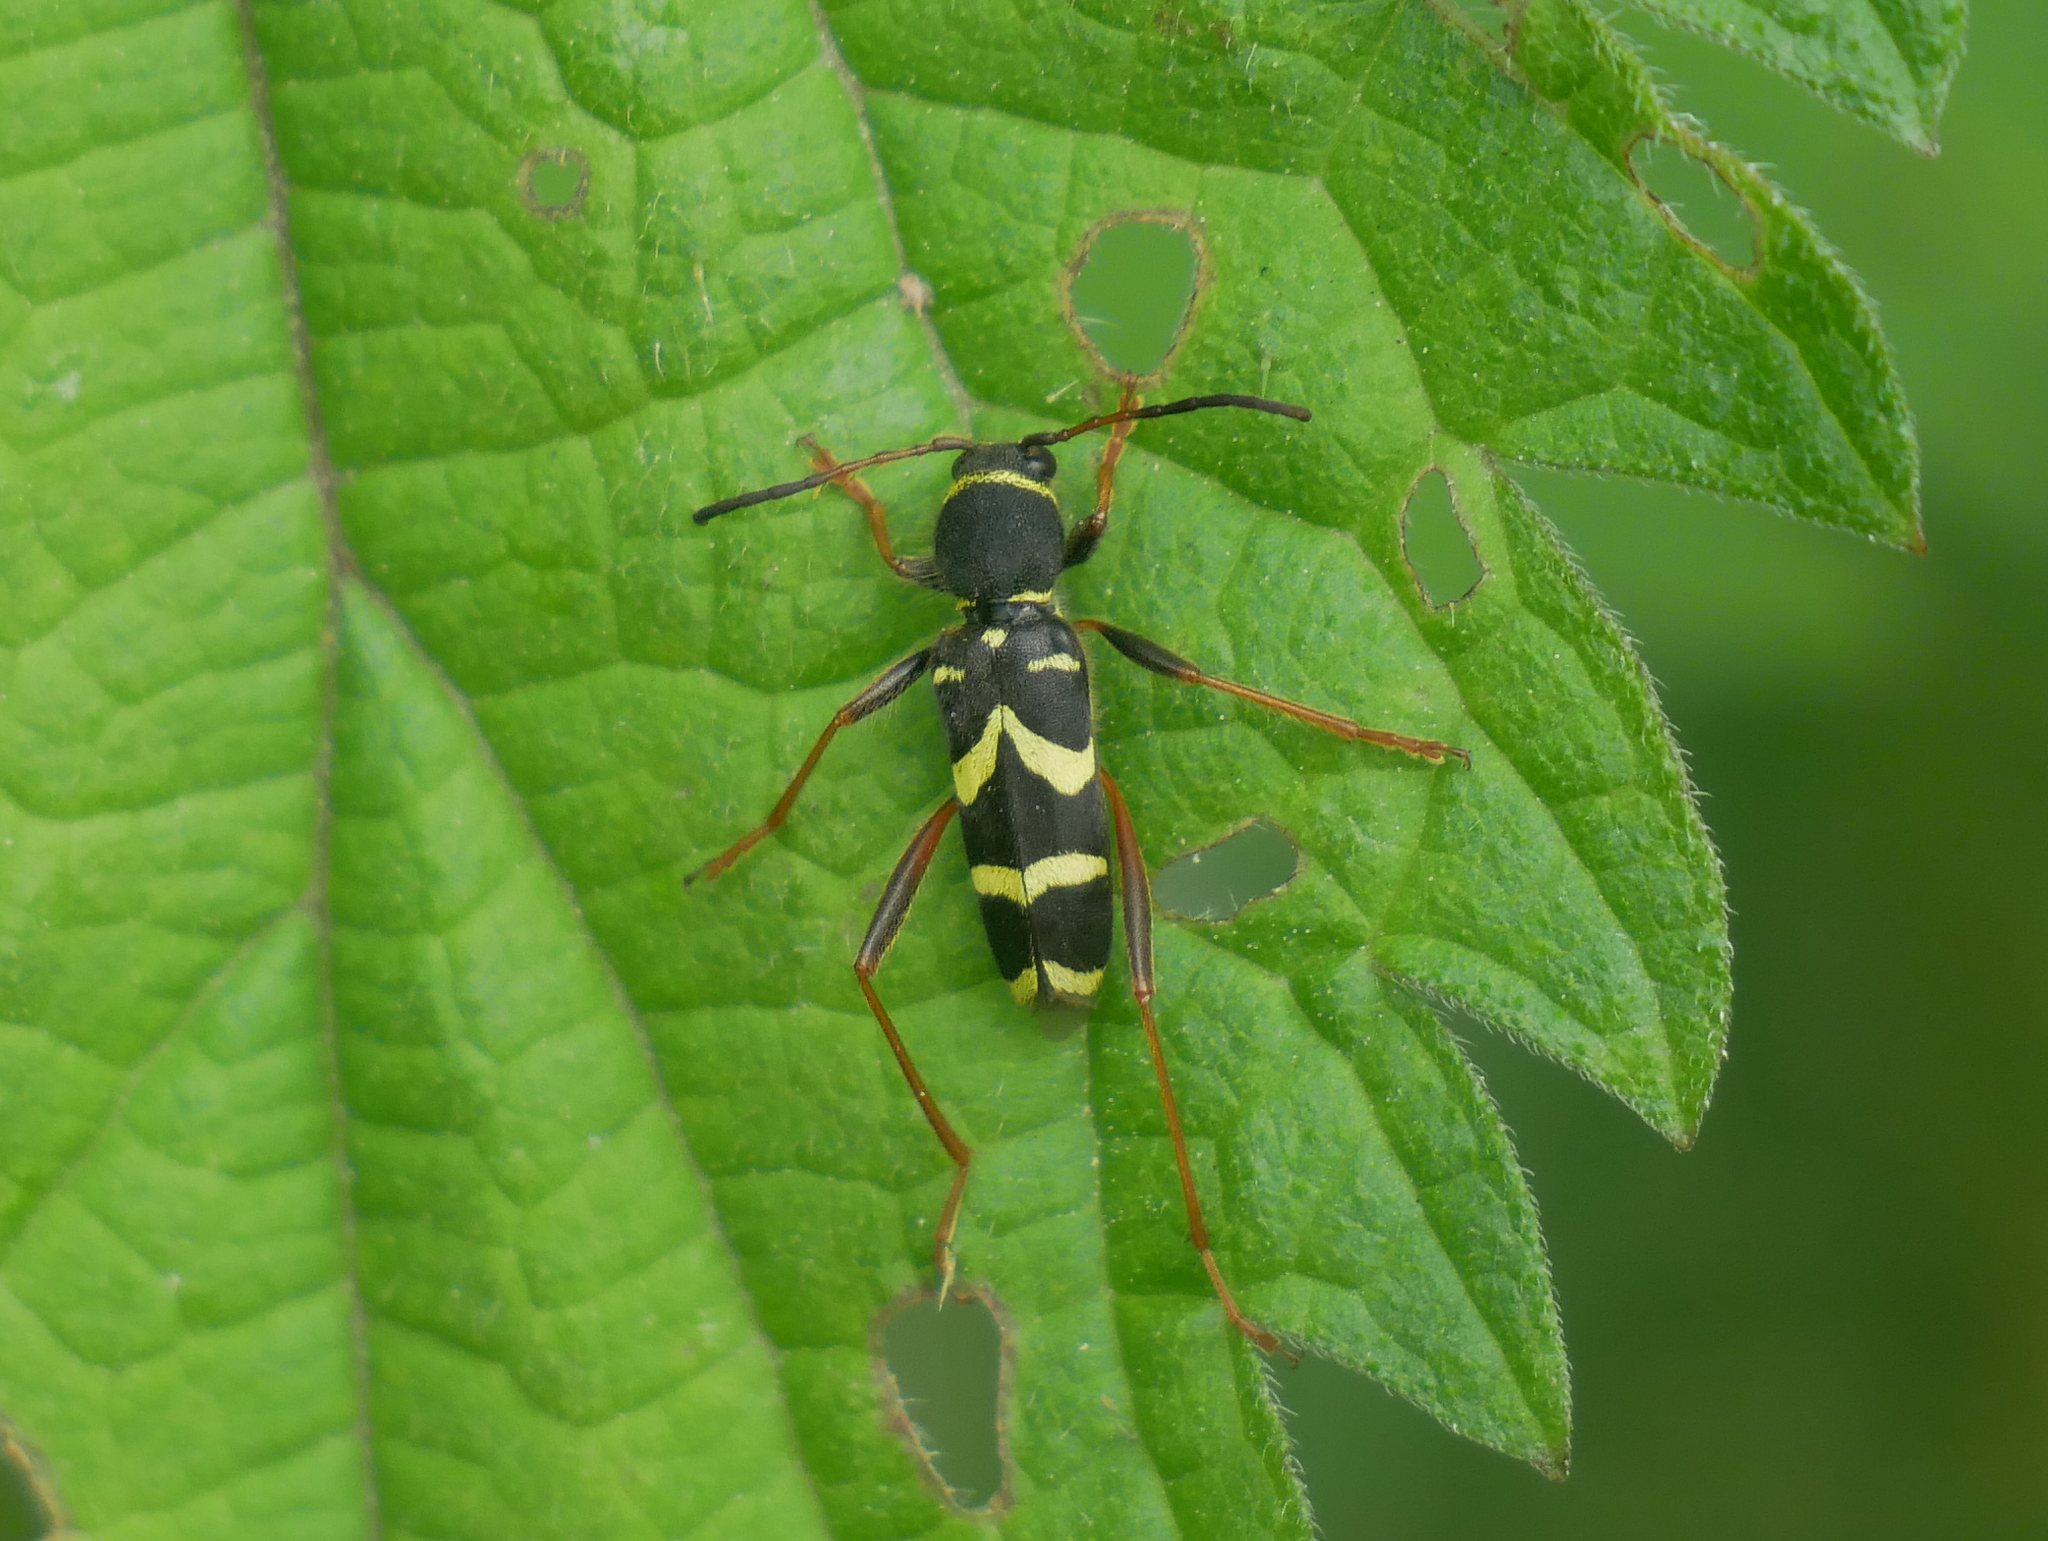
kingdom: Animalia
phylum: Arthropoda
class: Insecta
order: Coleoptera
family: Cerambycidae
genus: Clytus
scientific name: Clytus arietis
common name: Wasp beetle
